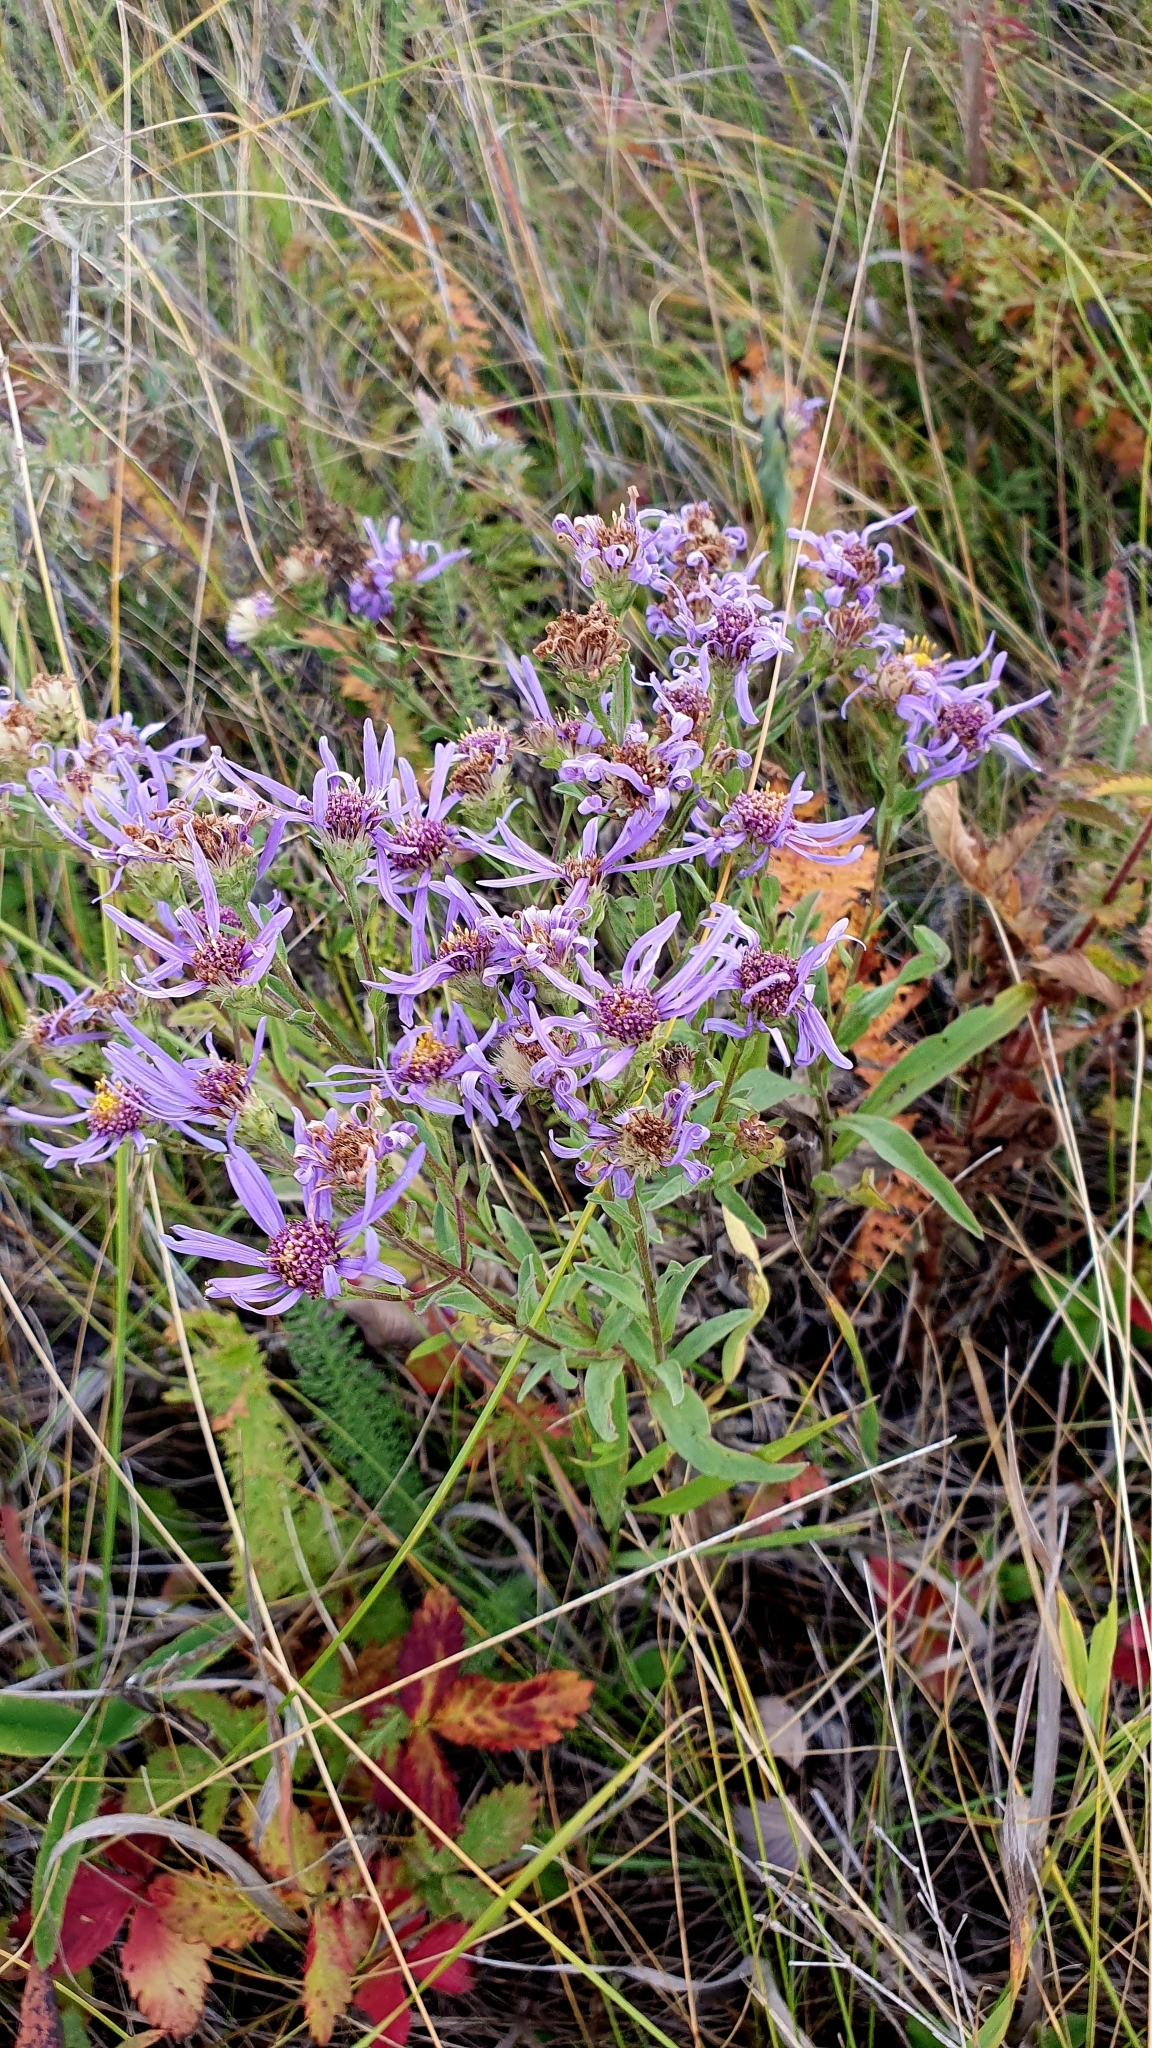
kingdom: Plantae
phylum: Tracheophyta
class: Magnoliopsida
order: Asterales
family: Asteraceae
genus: Aster
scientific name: Aster amellus
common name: European michaelmas daisy
